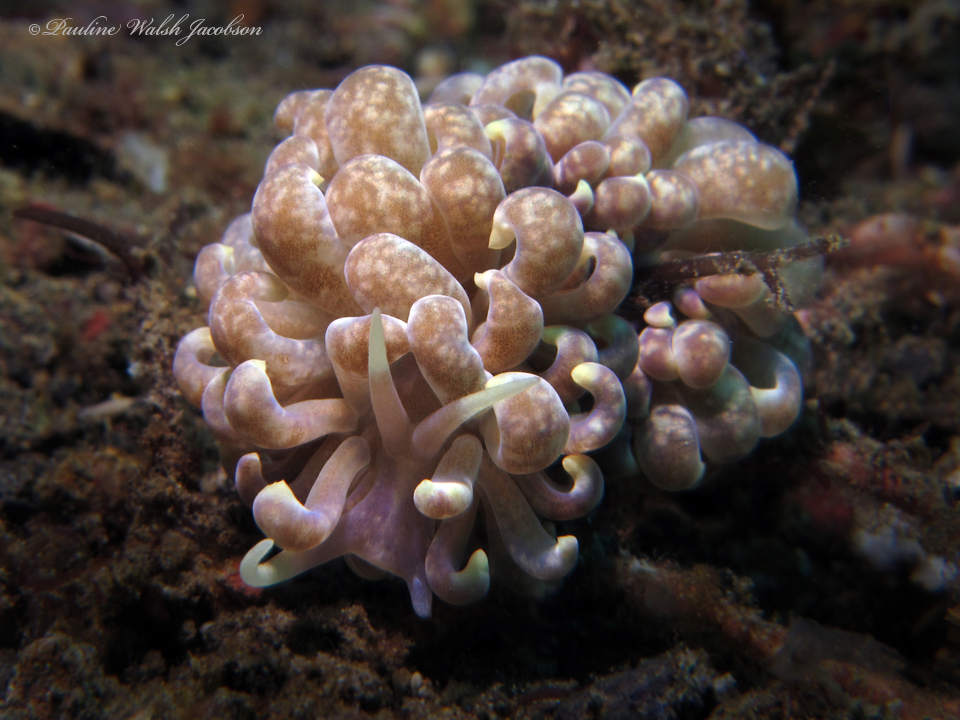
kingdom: Animalia
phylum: Mollusca
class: Gastropoda
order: Nudibranchia
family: Myrrhinidae
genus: Phyllodesmium
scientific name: Phyllodesmium magnum
